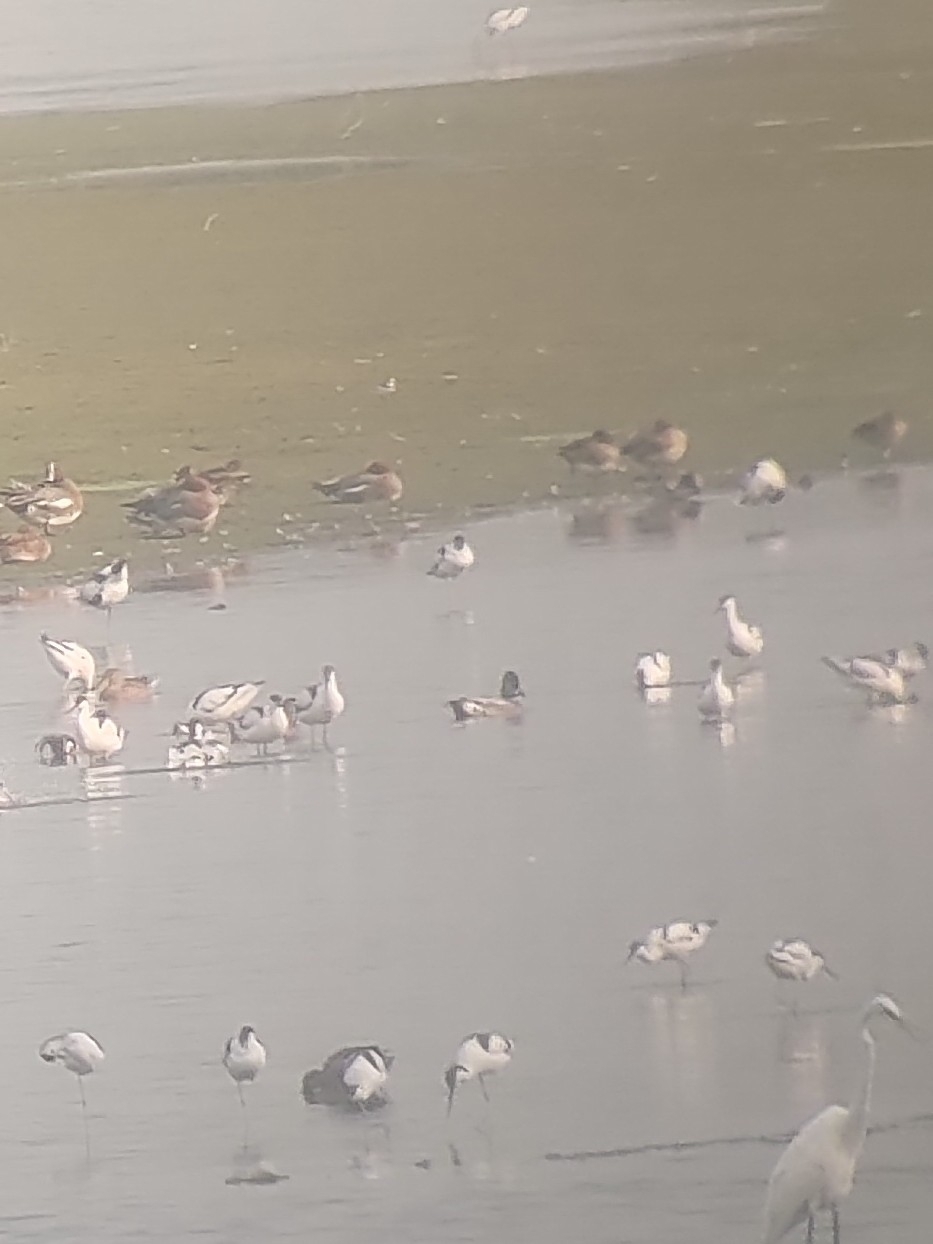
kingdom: Animalia
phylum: Chordata
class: Aves
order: Anseriformes
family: Anatidae
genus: Mareca
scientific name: Mareca falcata
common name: Falcated duck
